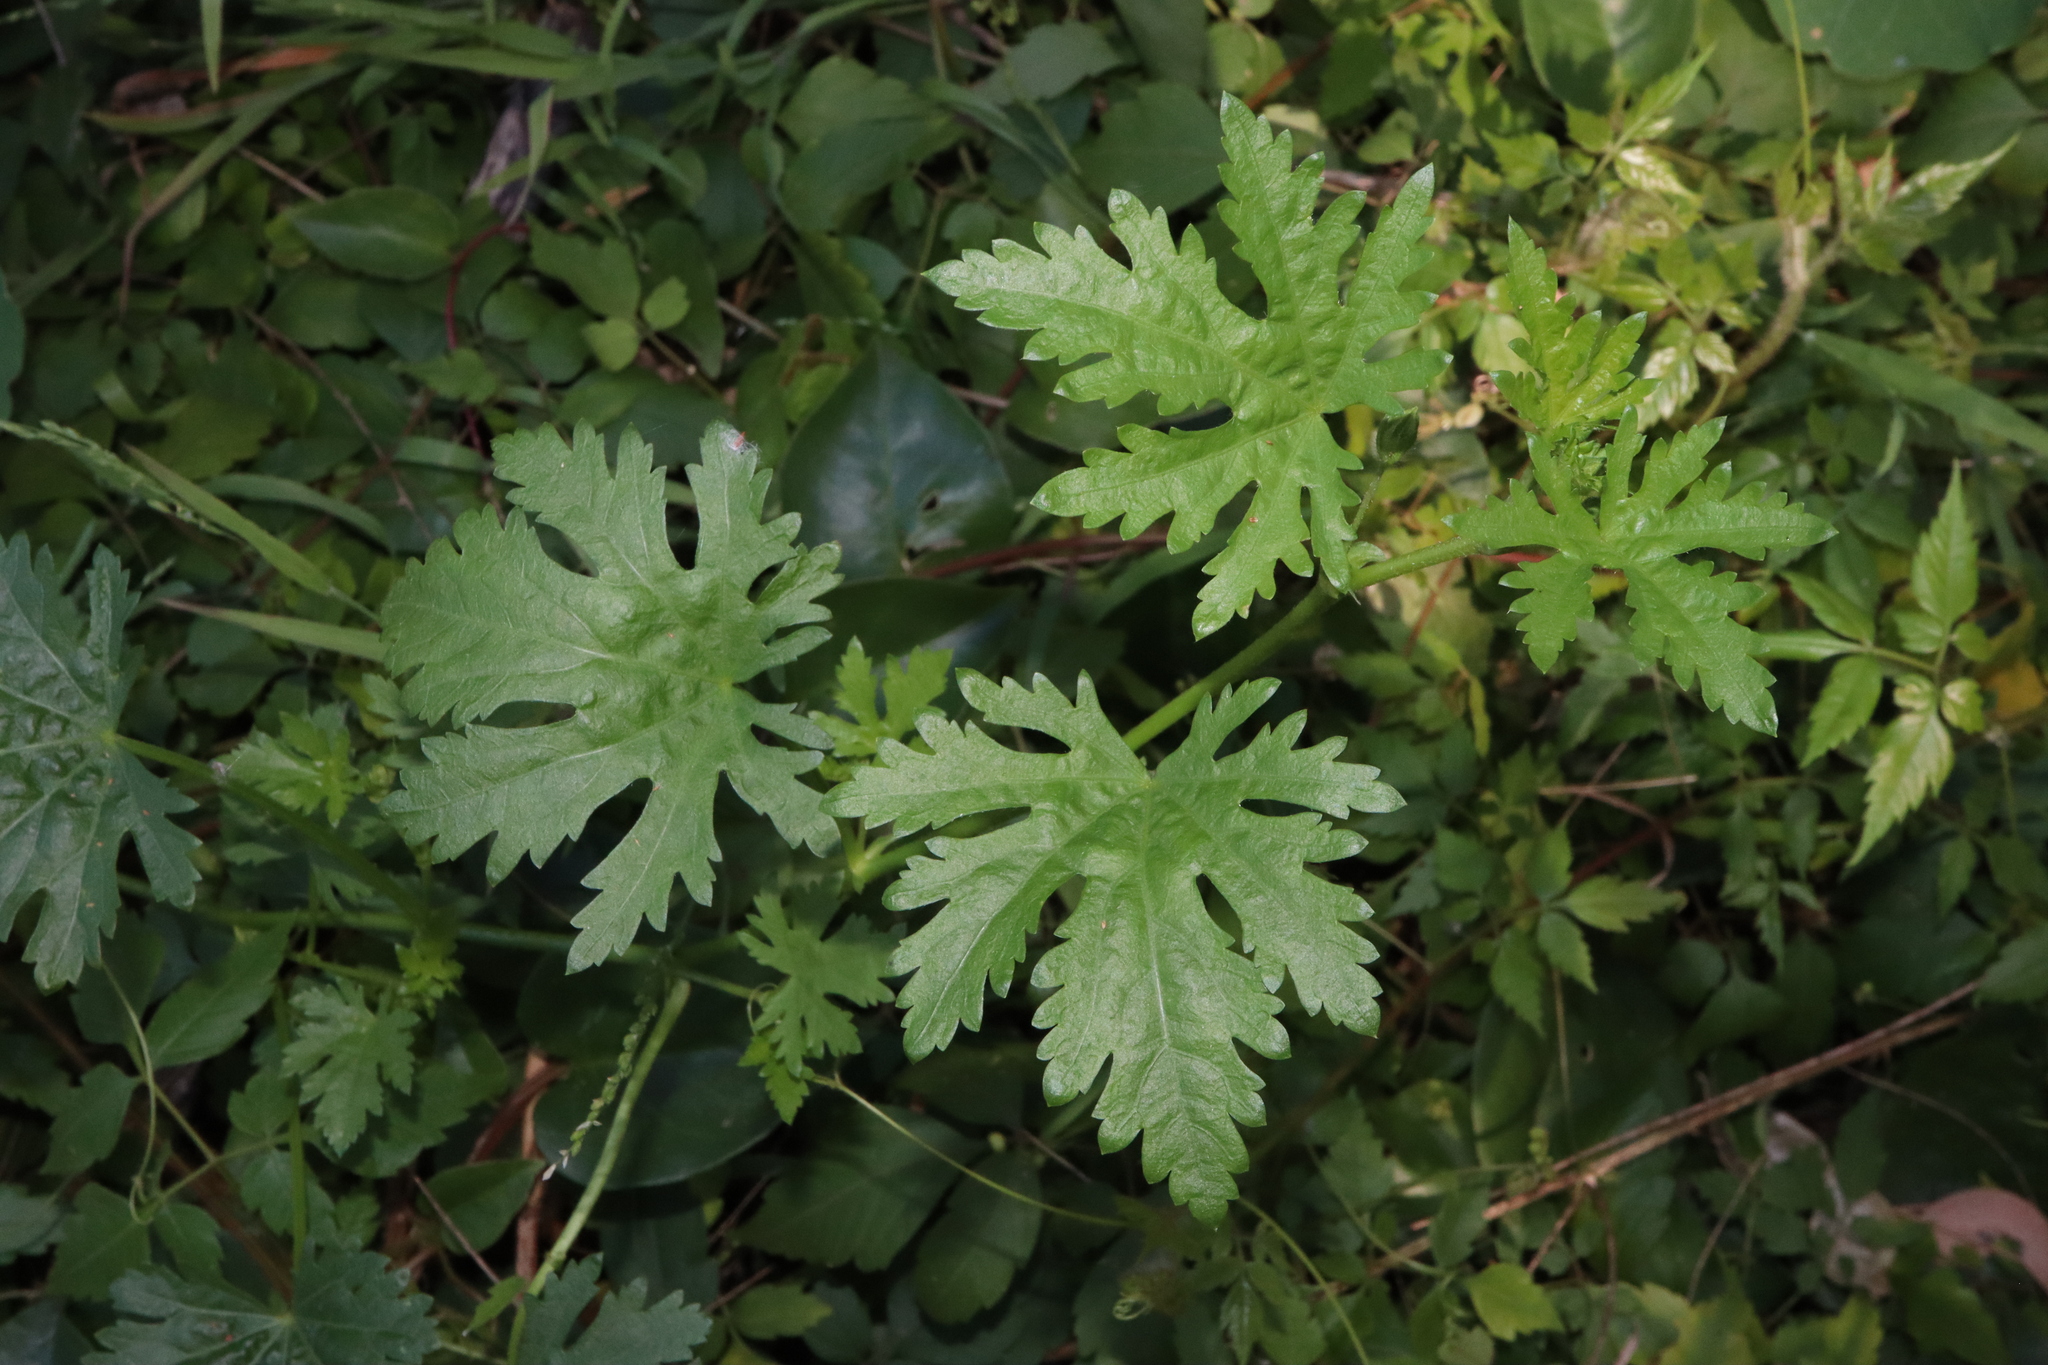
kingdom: Plantae
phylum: Tracheophyta
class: Magnoliopsida
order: Malvales
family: Malvaceae
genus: Modiola
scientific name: Modiola caroliniana
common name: Carolina bristlemallow
